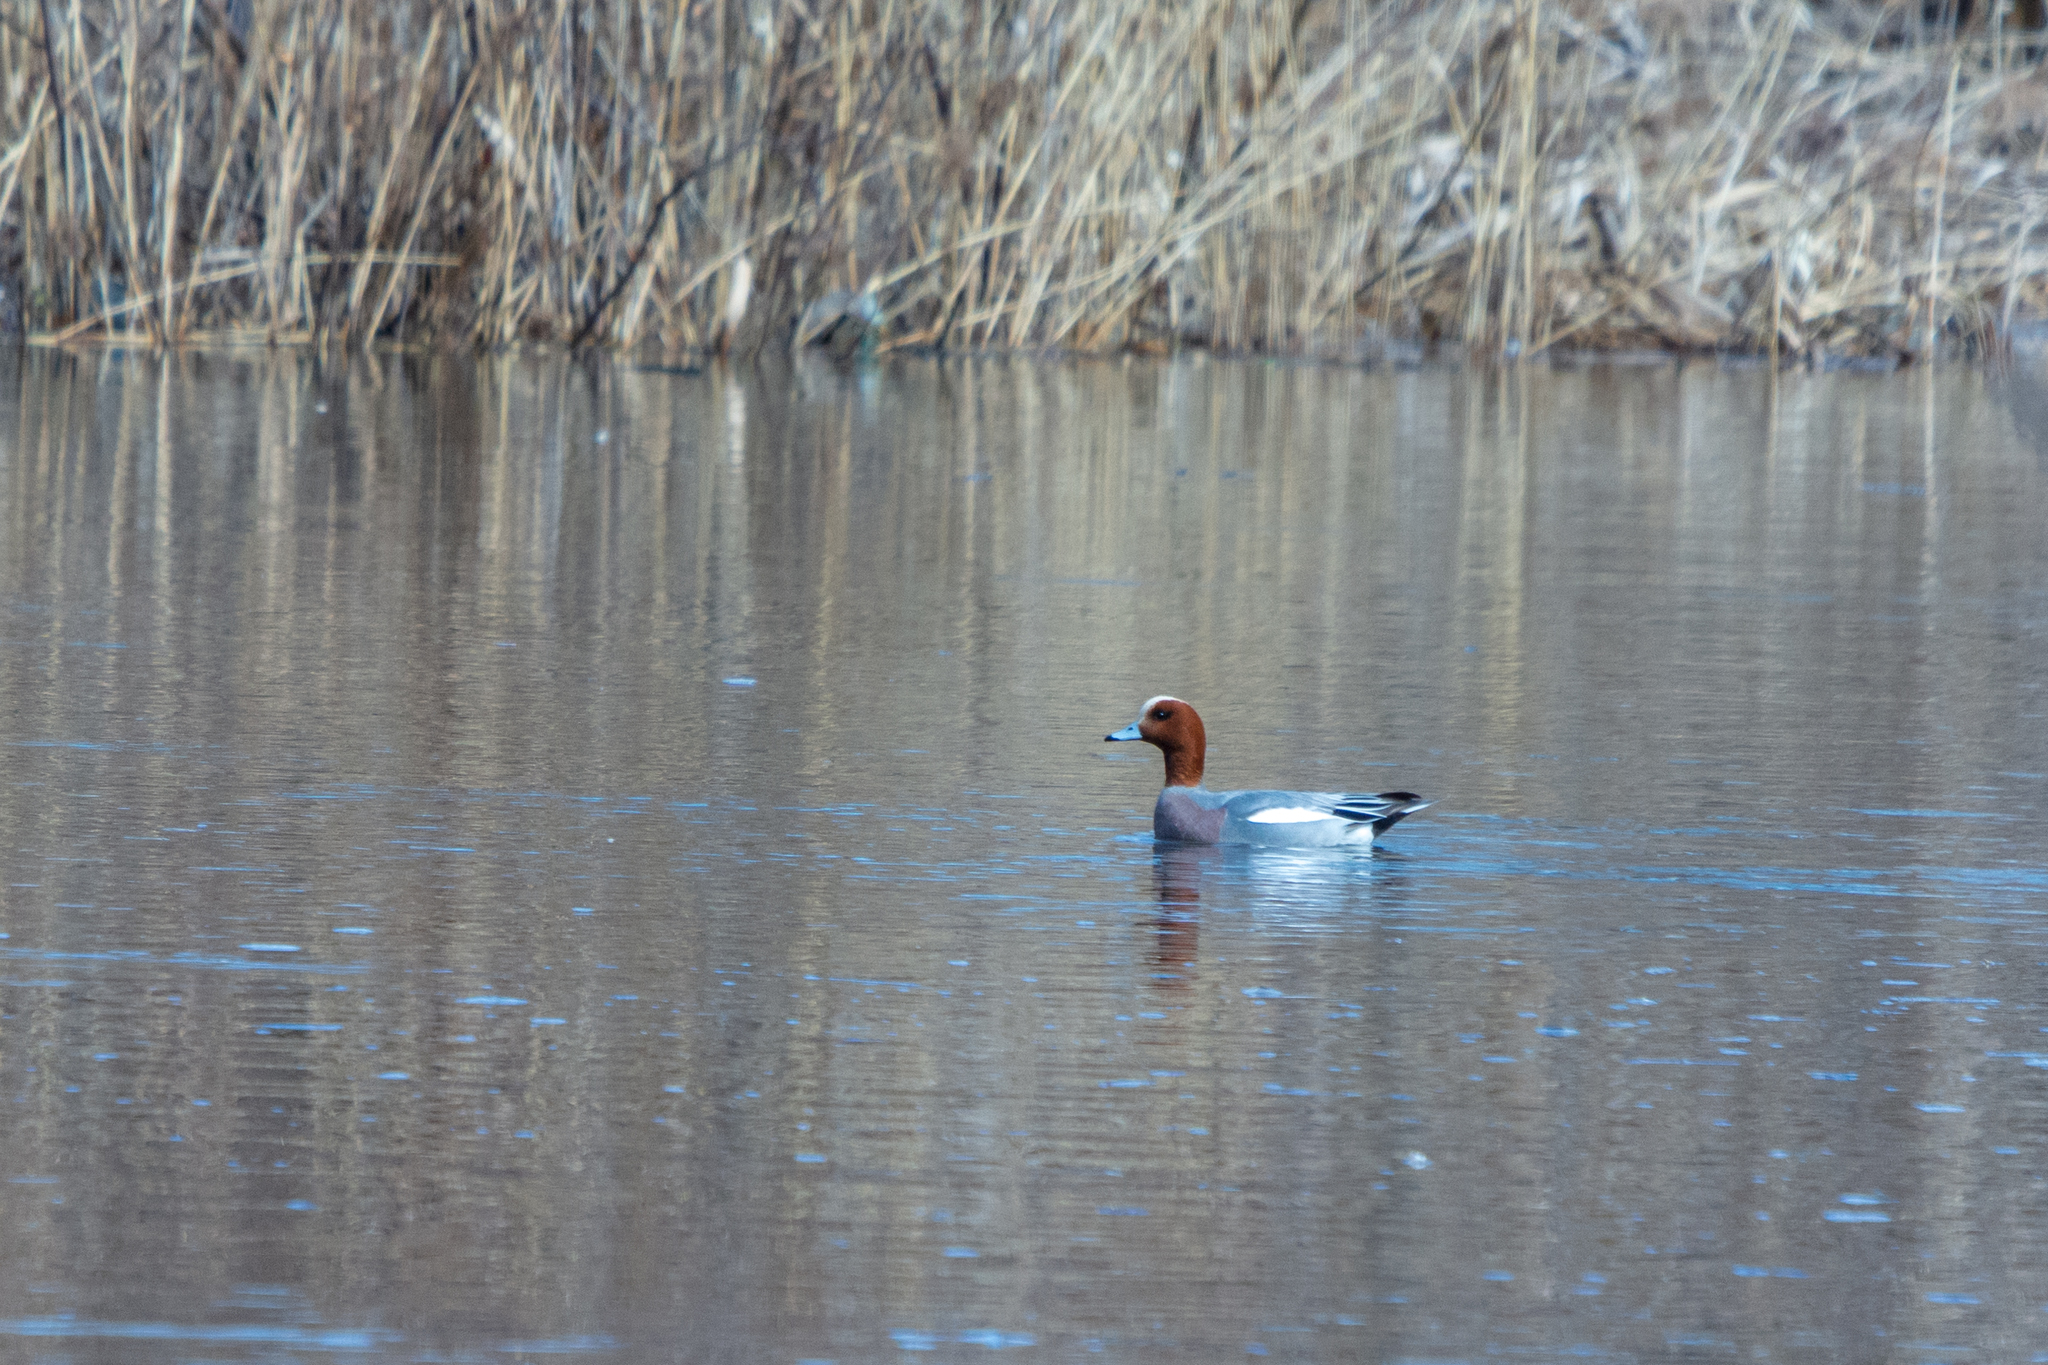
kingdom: Animalia
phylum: Chordata
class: Aves
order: Anseriformes
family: Anatidae
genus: Mareca
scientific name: Mareca penelope
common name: Eurasian wigeon
